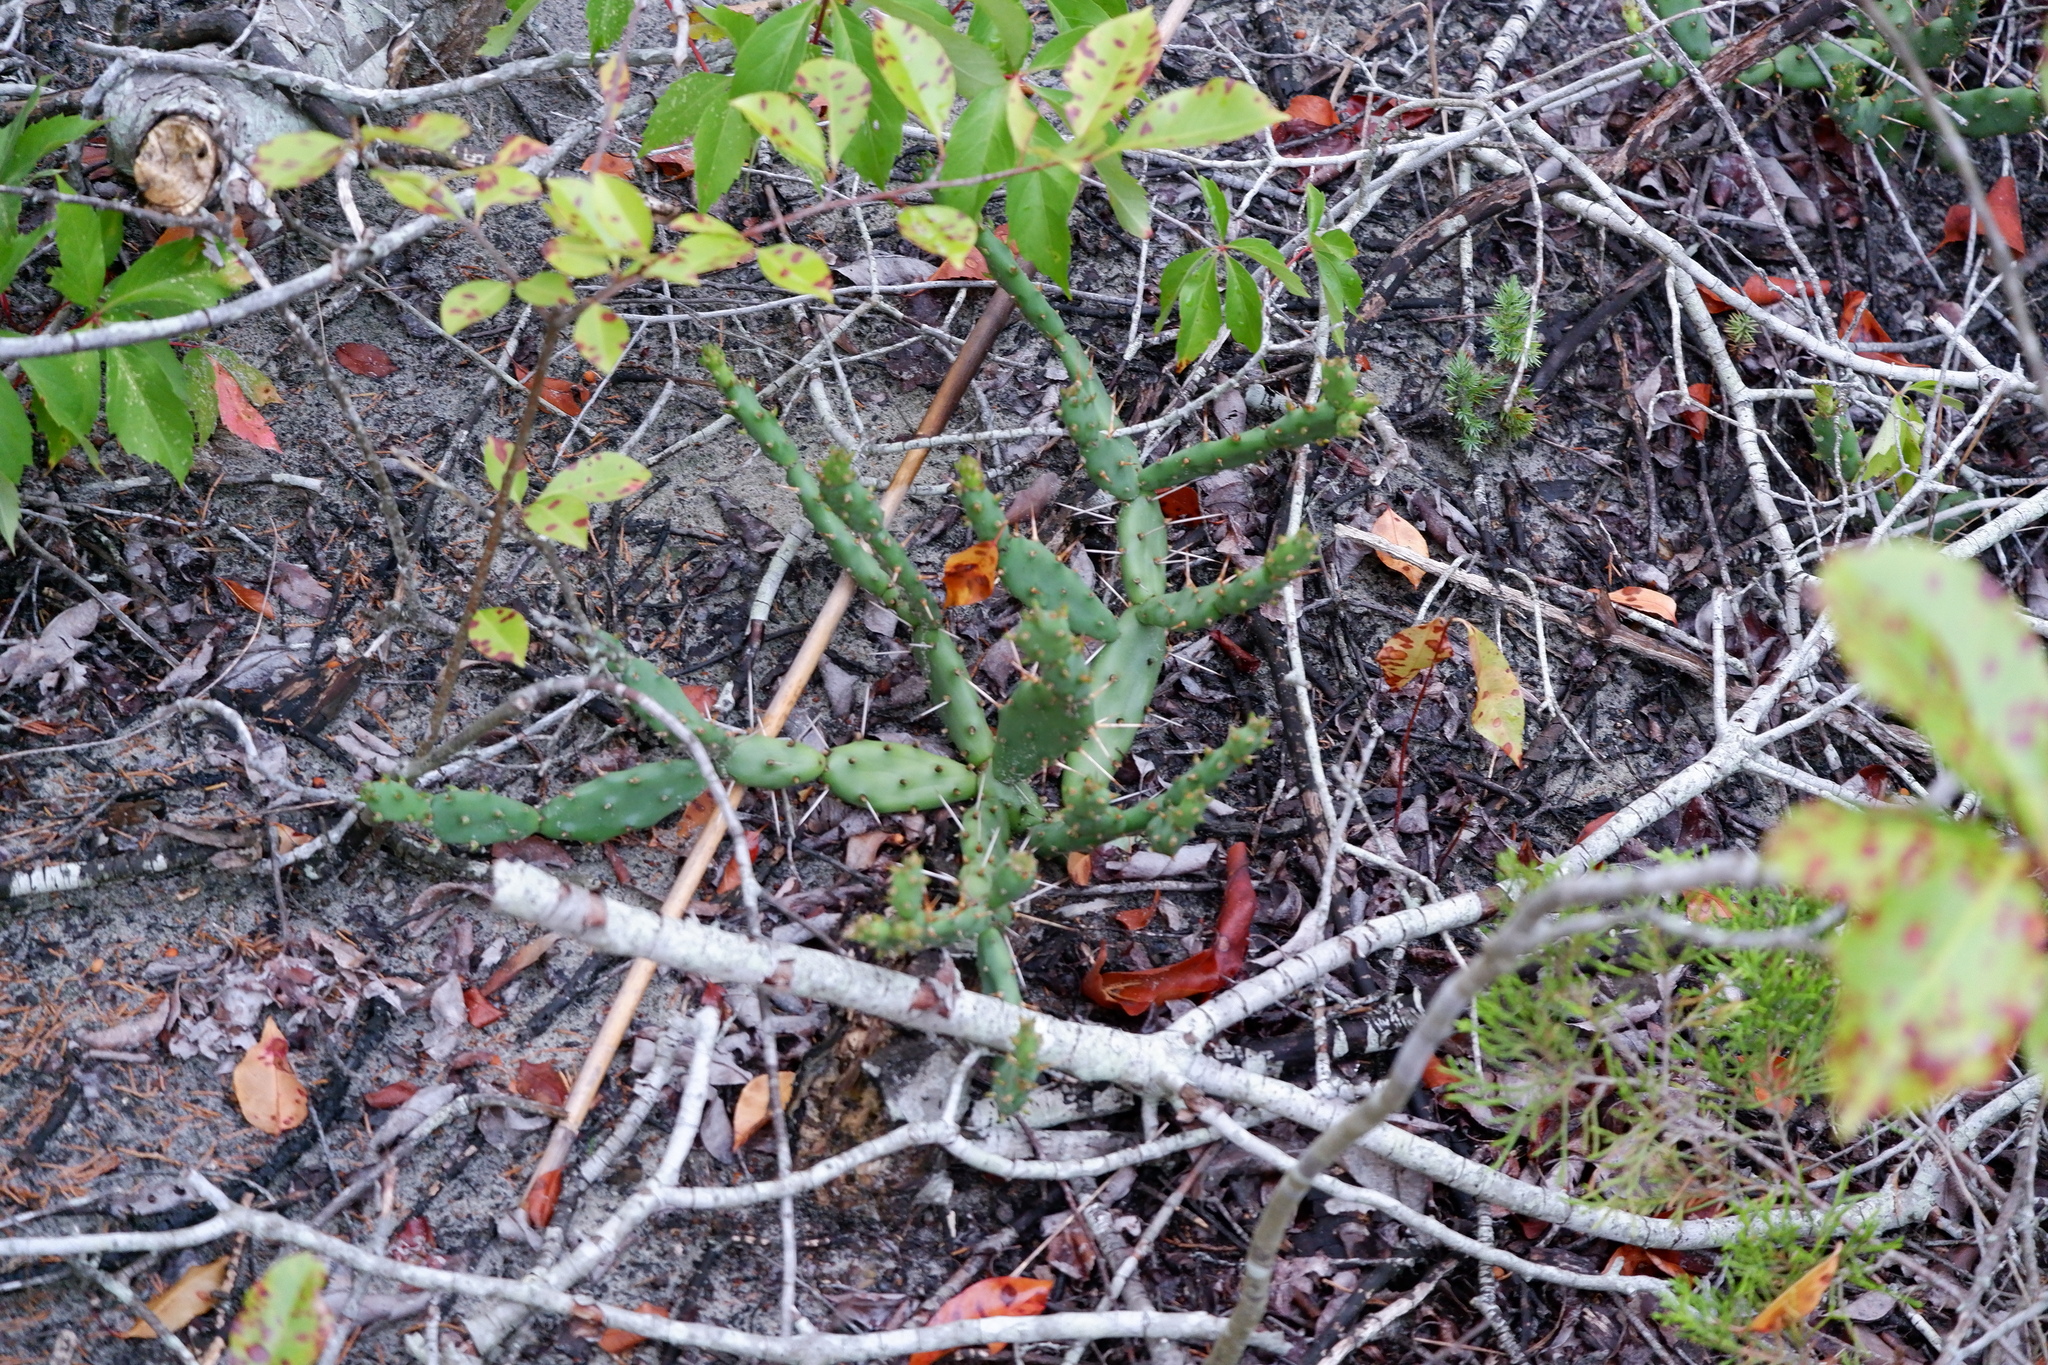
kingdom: Plantae
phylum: Tracheophyta
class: Magnoliopsida
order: Caryophyllales
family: Cactaceae
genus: Opuntia
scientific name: Opuntia drummondii
